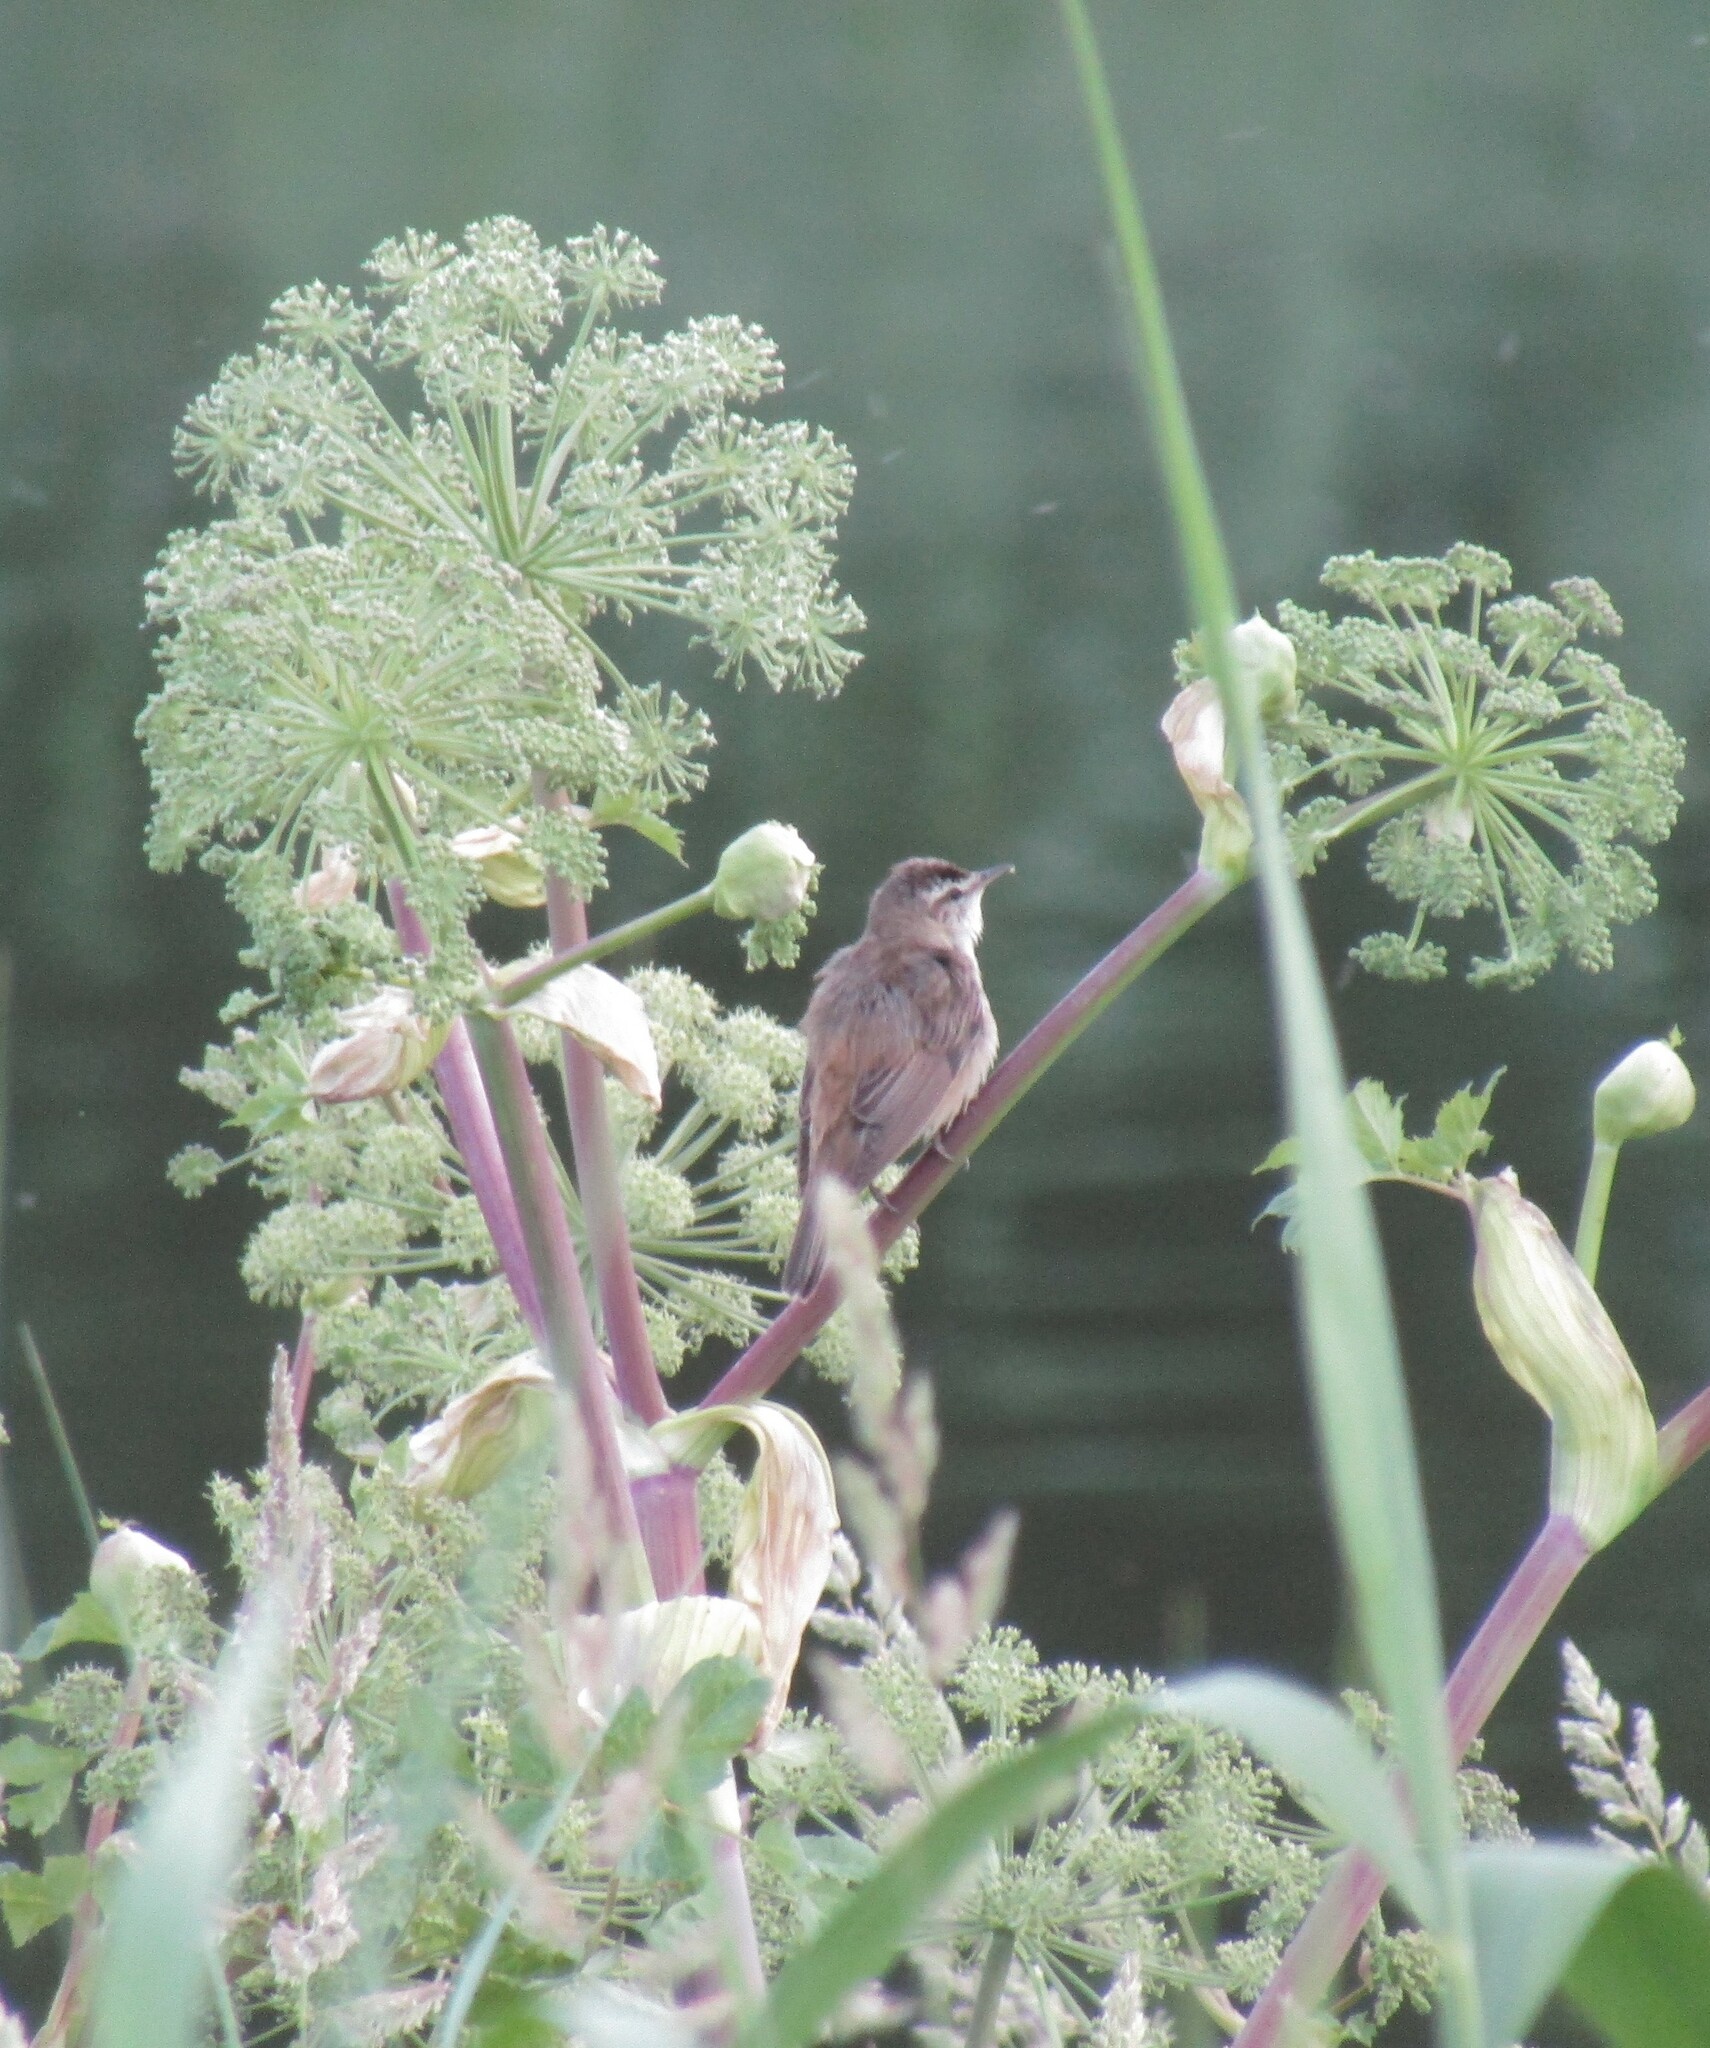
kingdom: Animalia
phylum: Chordata
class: Aves
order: Passeriformes
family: Acrocephalidae
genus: Acrocephalus
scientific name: Acrocephalus schoenobaenus
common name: Sedge warbler
